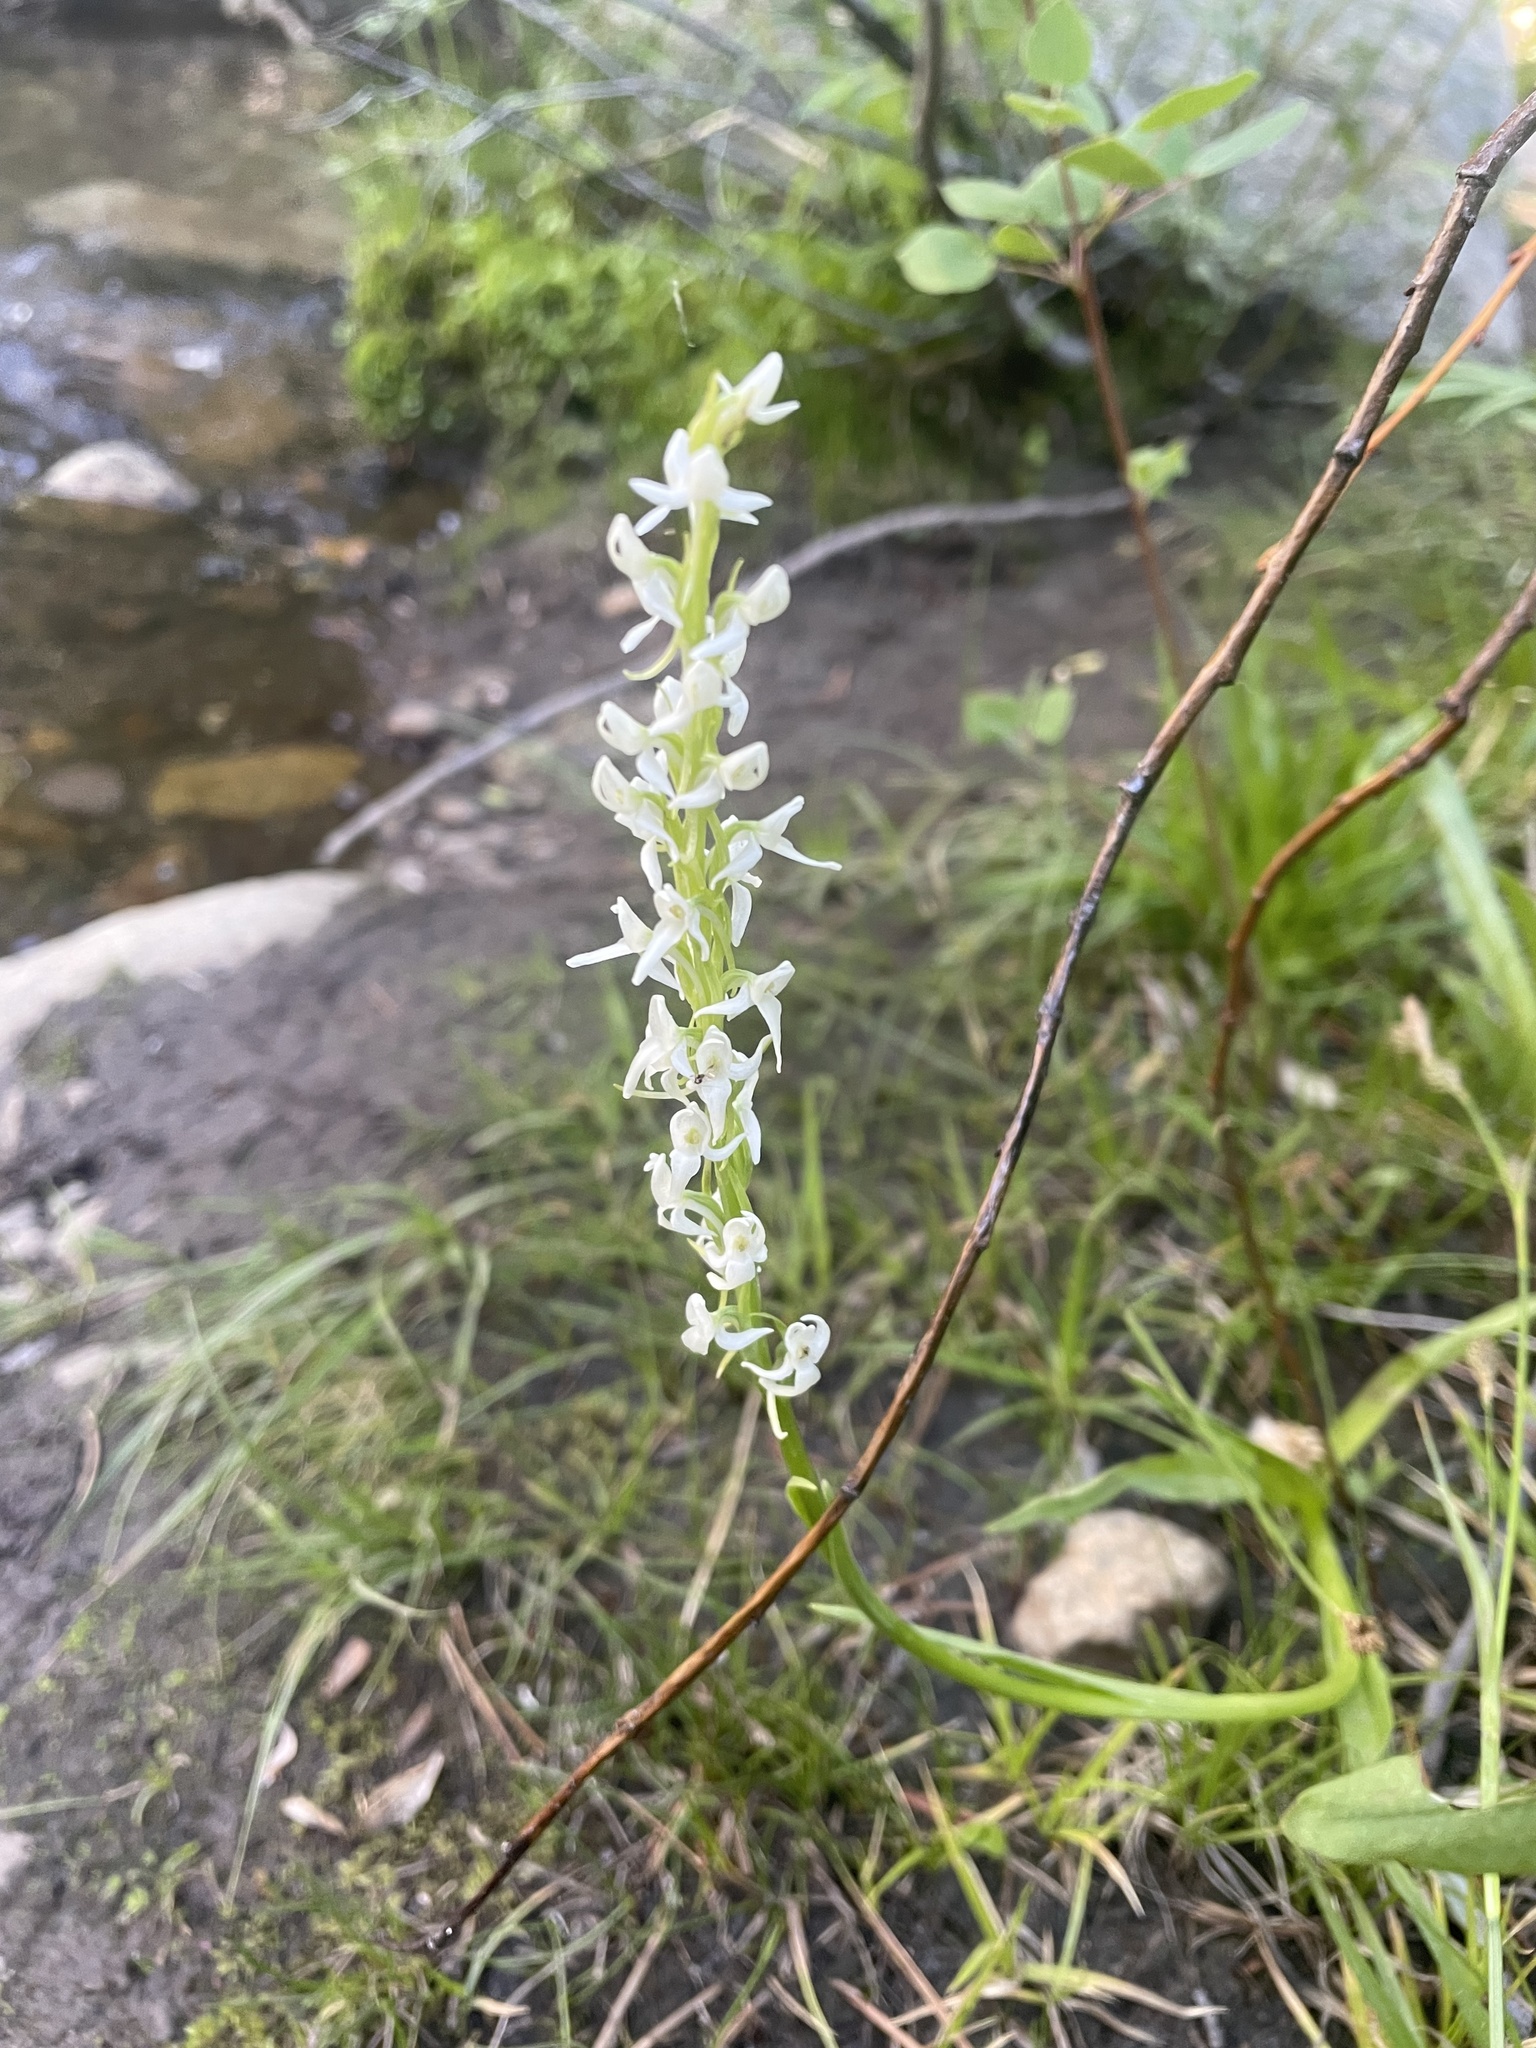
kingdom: Plantae
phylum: Tracheophyta
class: Liliopsida
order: Asparagales
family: Orchidaceae
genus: Platanthera
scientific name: Platanthera dilatata
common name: Bog candles
